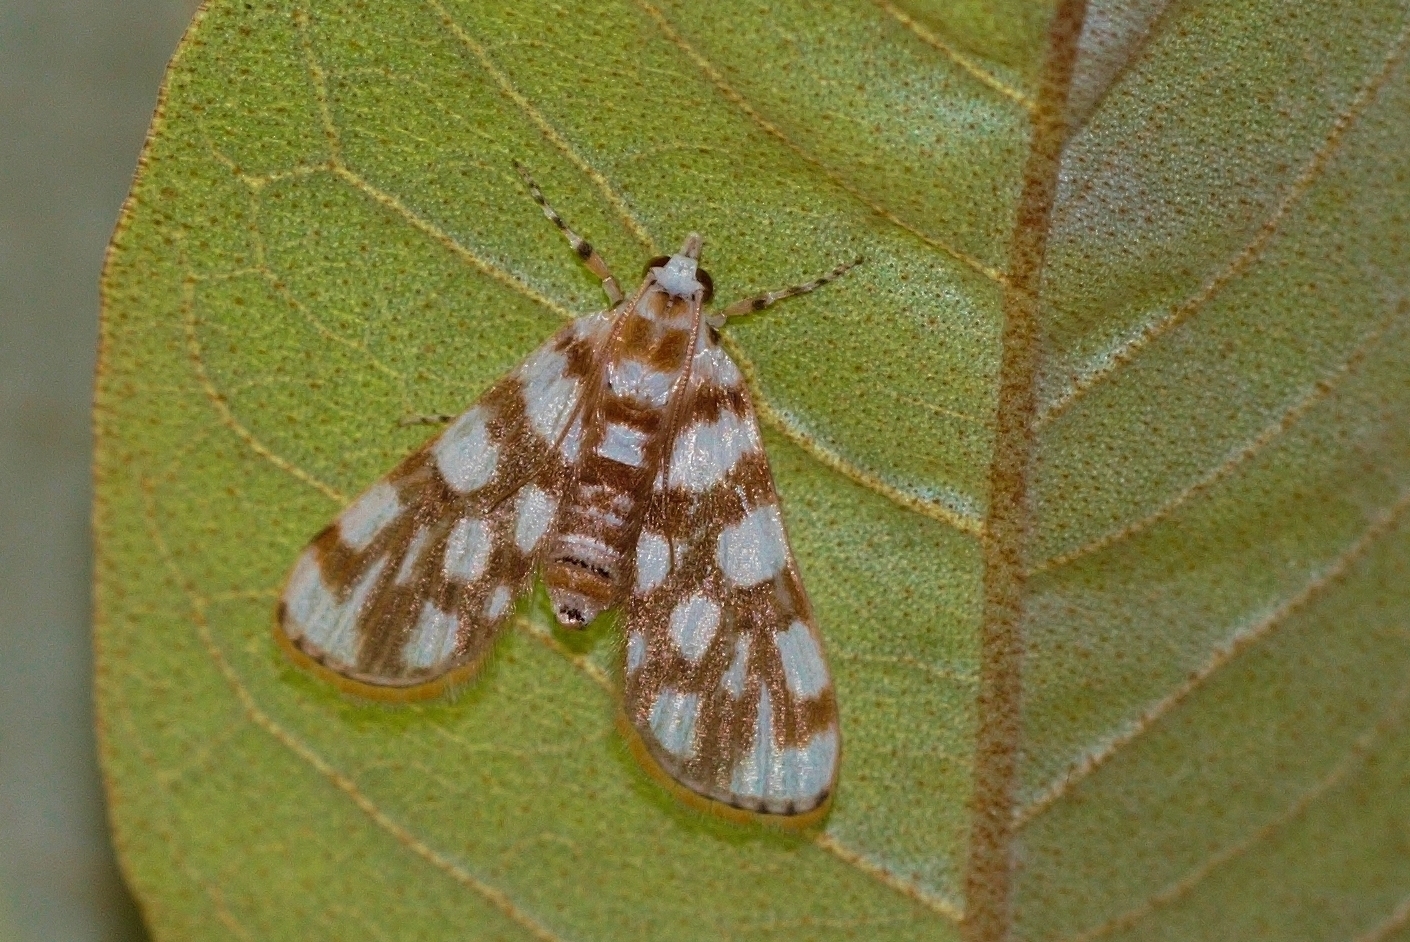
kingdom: Animalia
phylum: Arthropoda
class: Insecta
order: Lepidoptera
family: Crambidae
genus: Obtusipalpis
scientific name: Obtusipalpis pardalis
